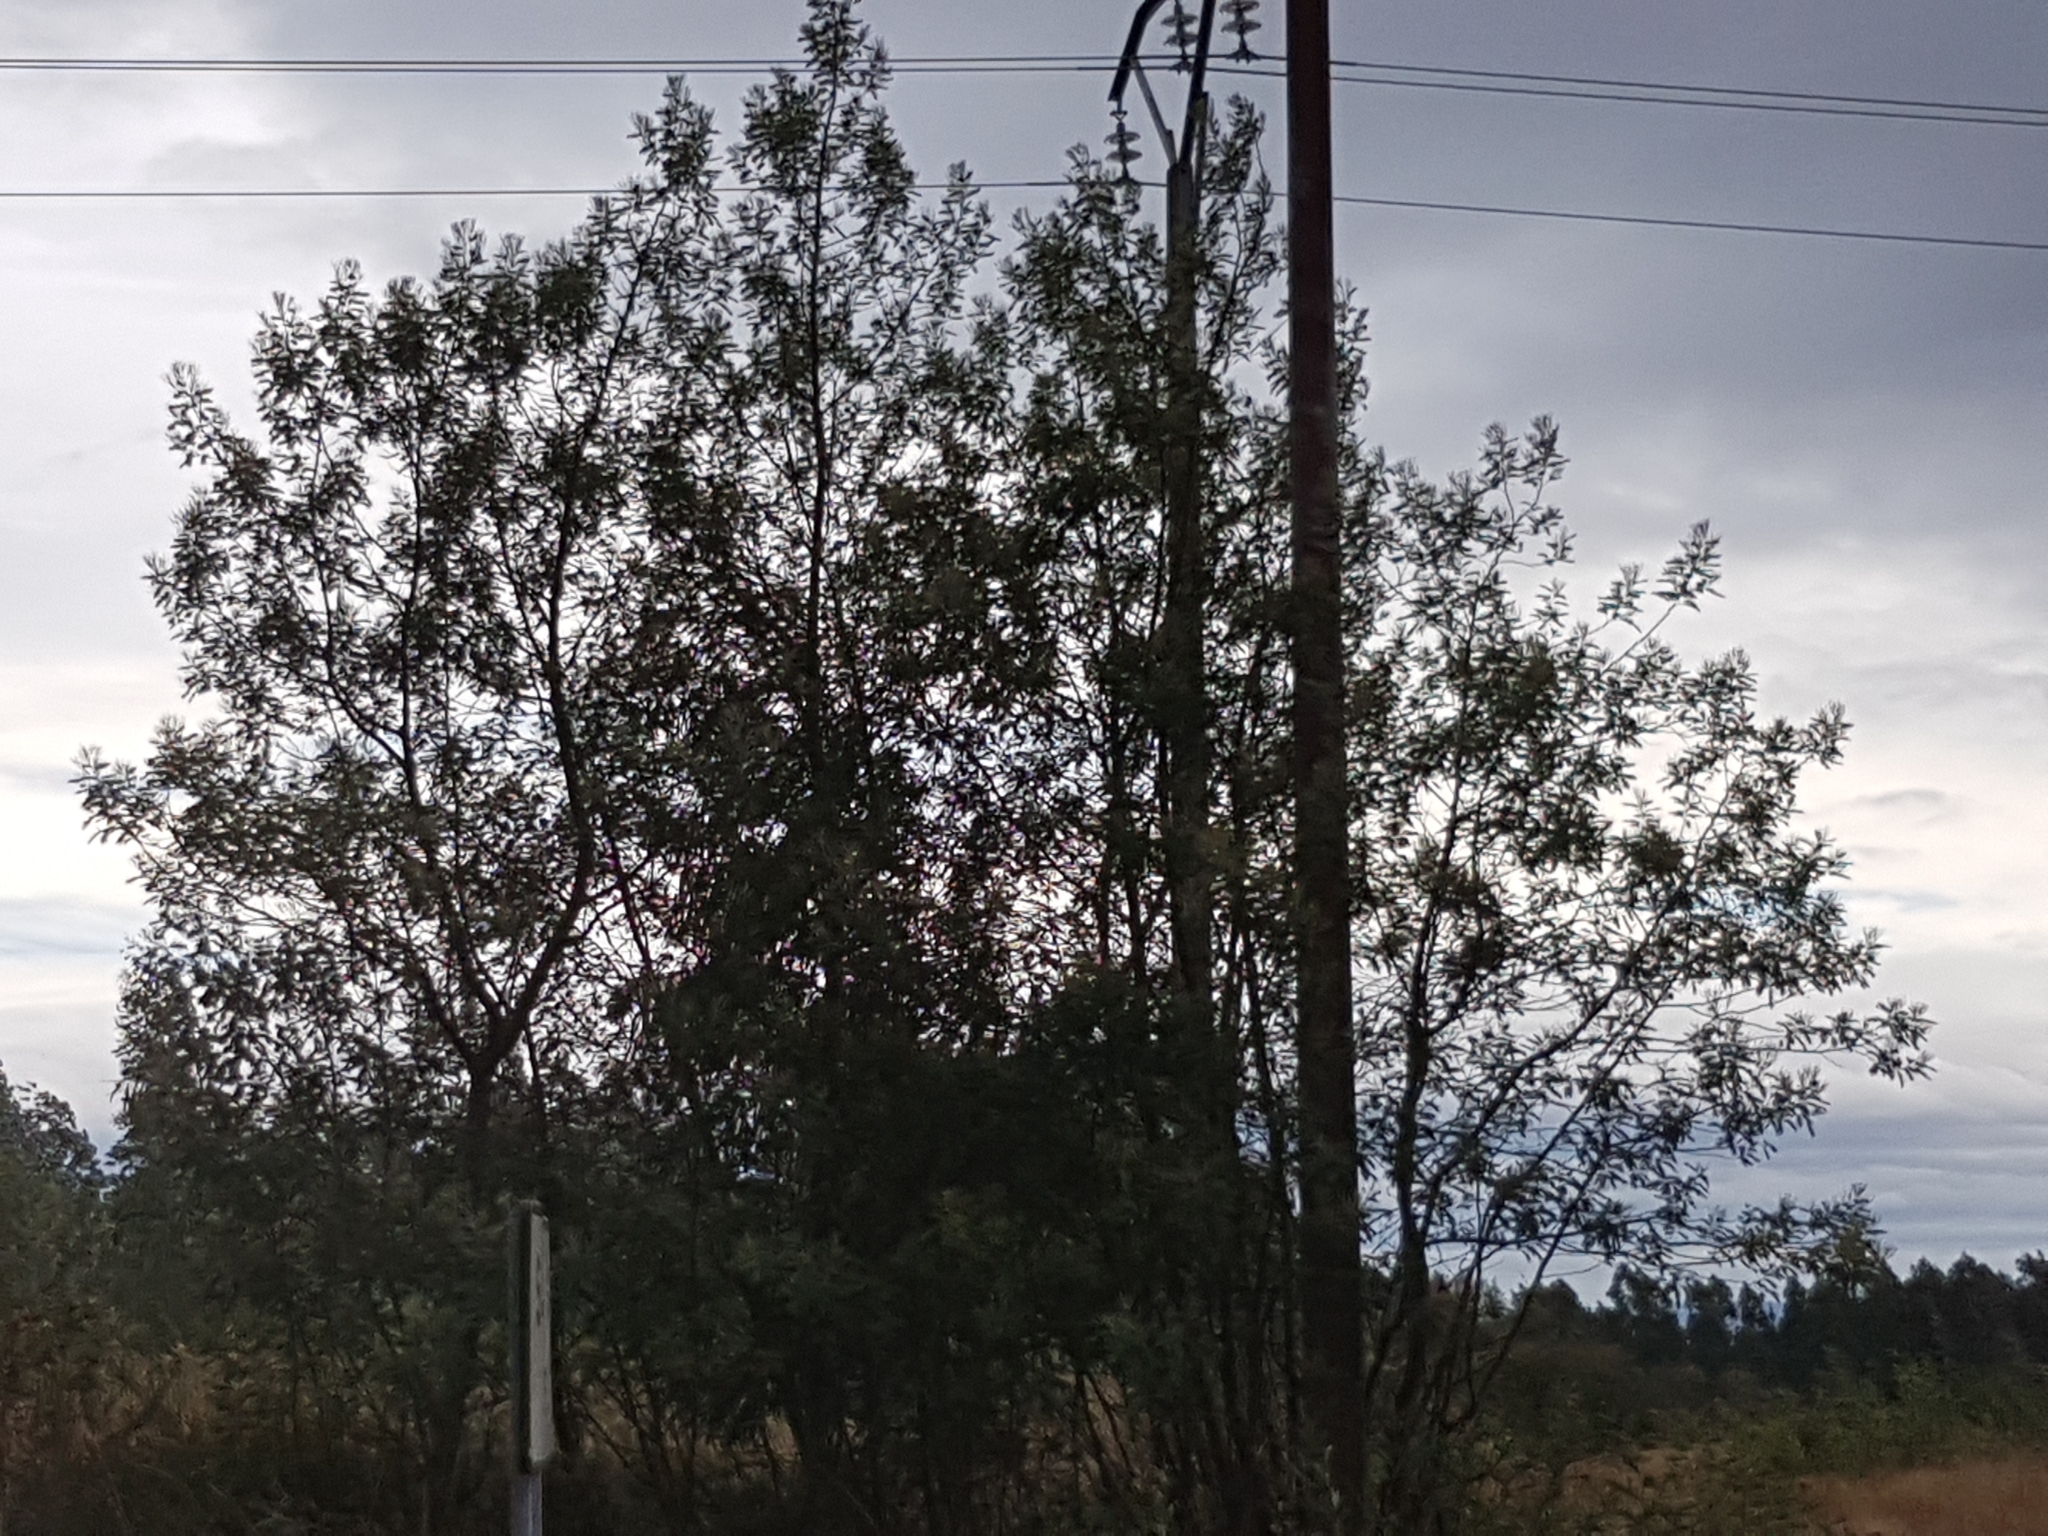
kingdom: Plantae
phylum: Tracheophyta
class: Magnoliopsida
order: Fabales
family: Fabaceae
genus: Acacia
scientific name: Acacia dealbata
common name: Silver wattle
